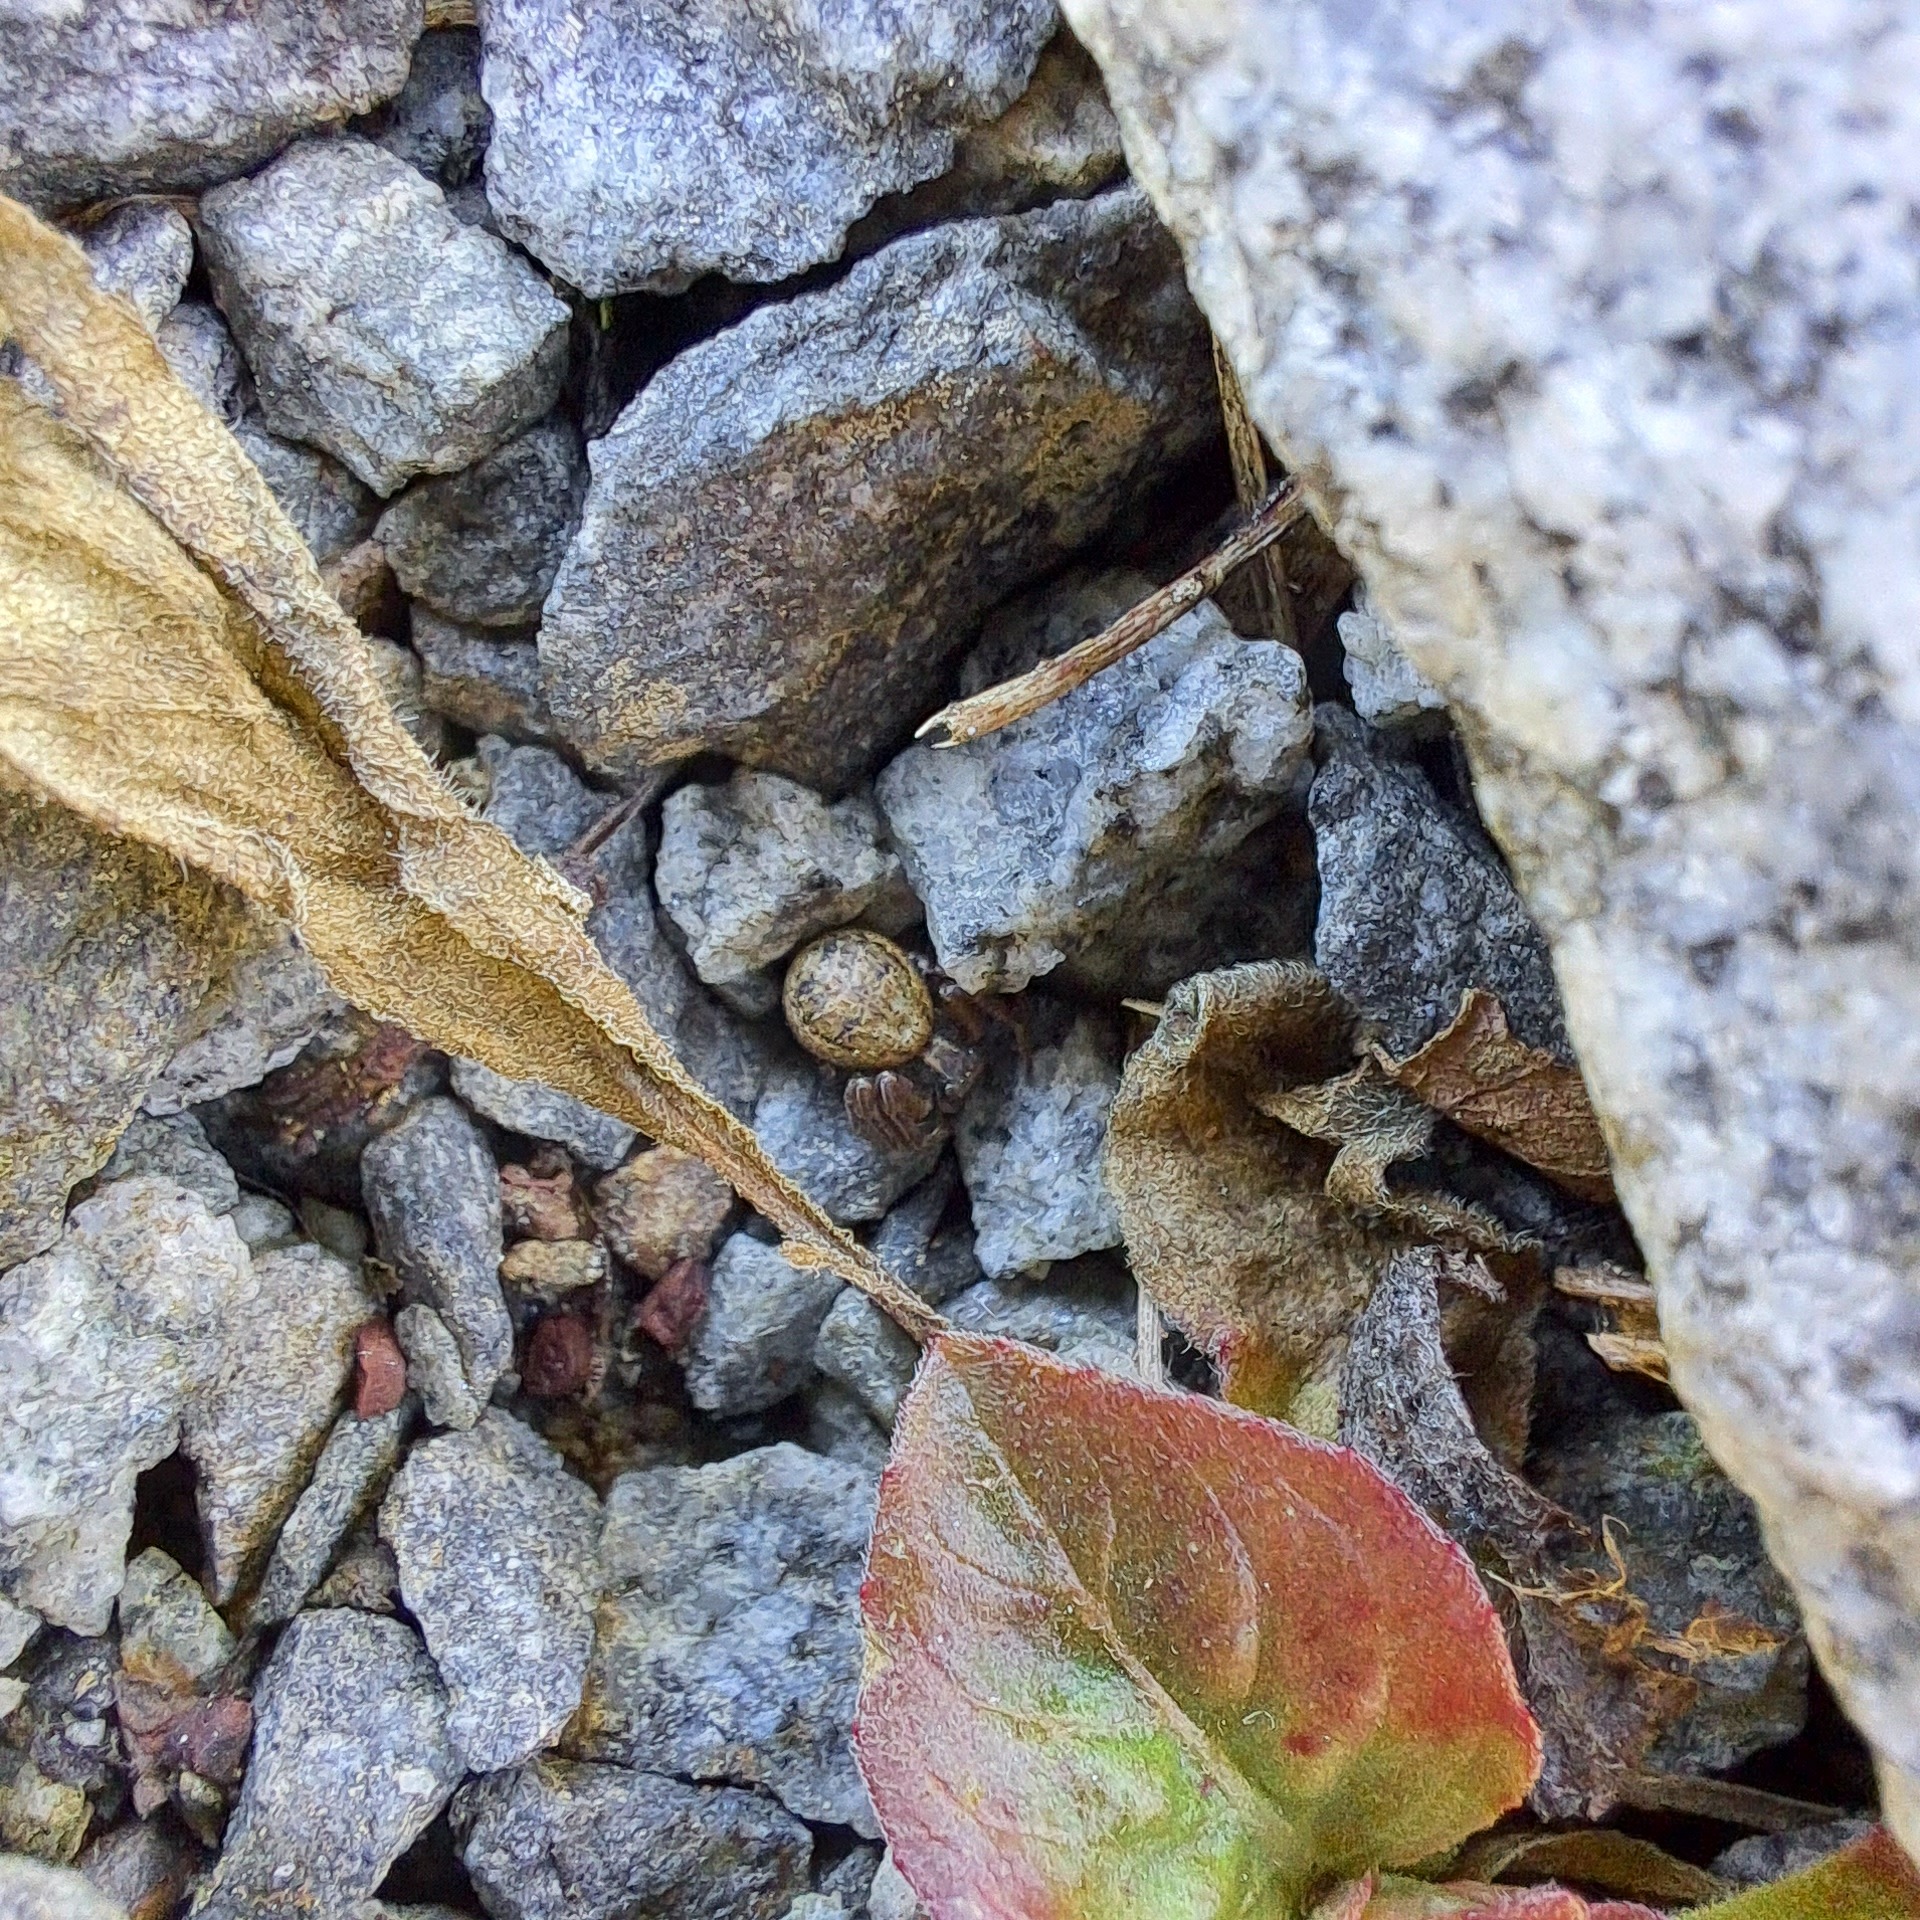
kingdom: Animalia
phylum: Arthropoda
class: Arachnida
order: Araneae
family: Thomisidae
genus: Xysticus
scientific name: Xysticus
